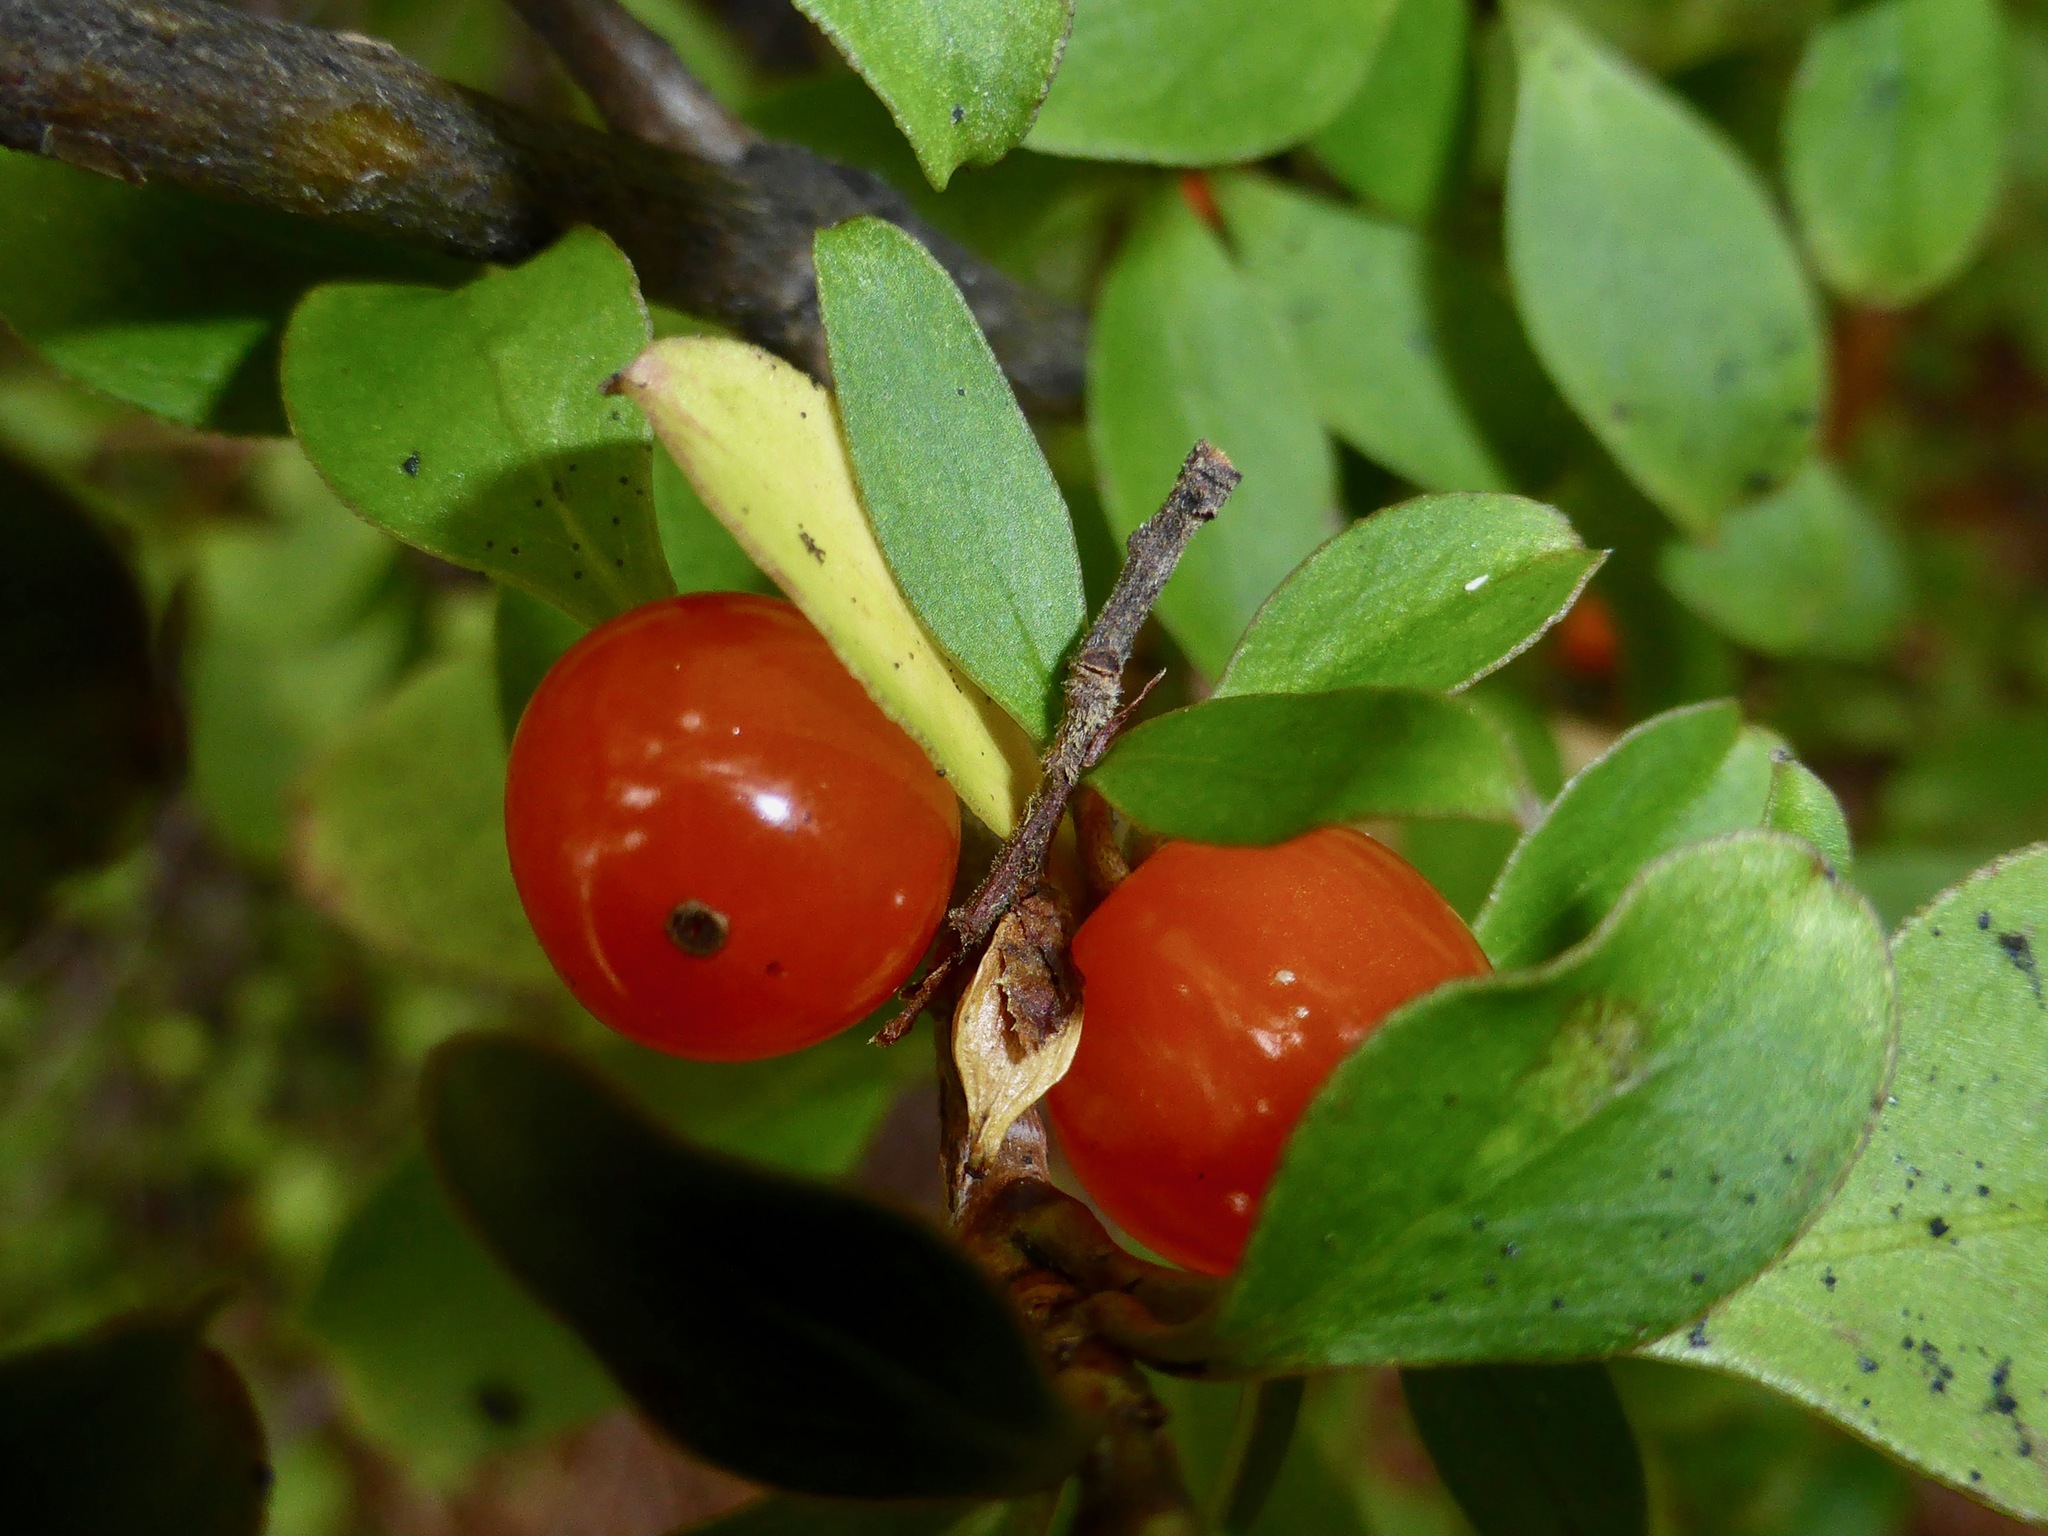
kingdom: Plantae
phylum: Tracheophyta
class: Magnoliopsida
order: Gentianales
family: Rubiaceae
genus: Coprosma
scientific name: Coprosma rhamnoides
